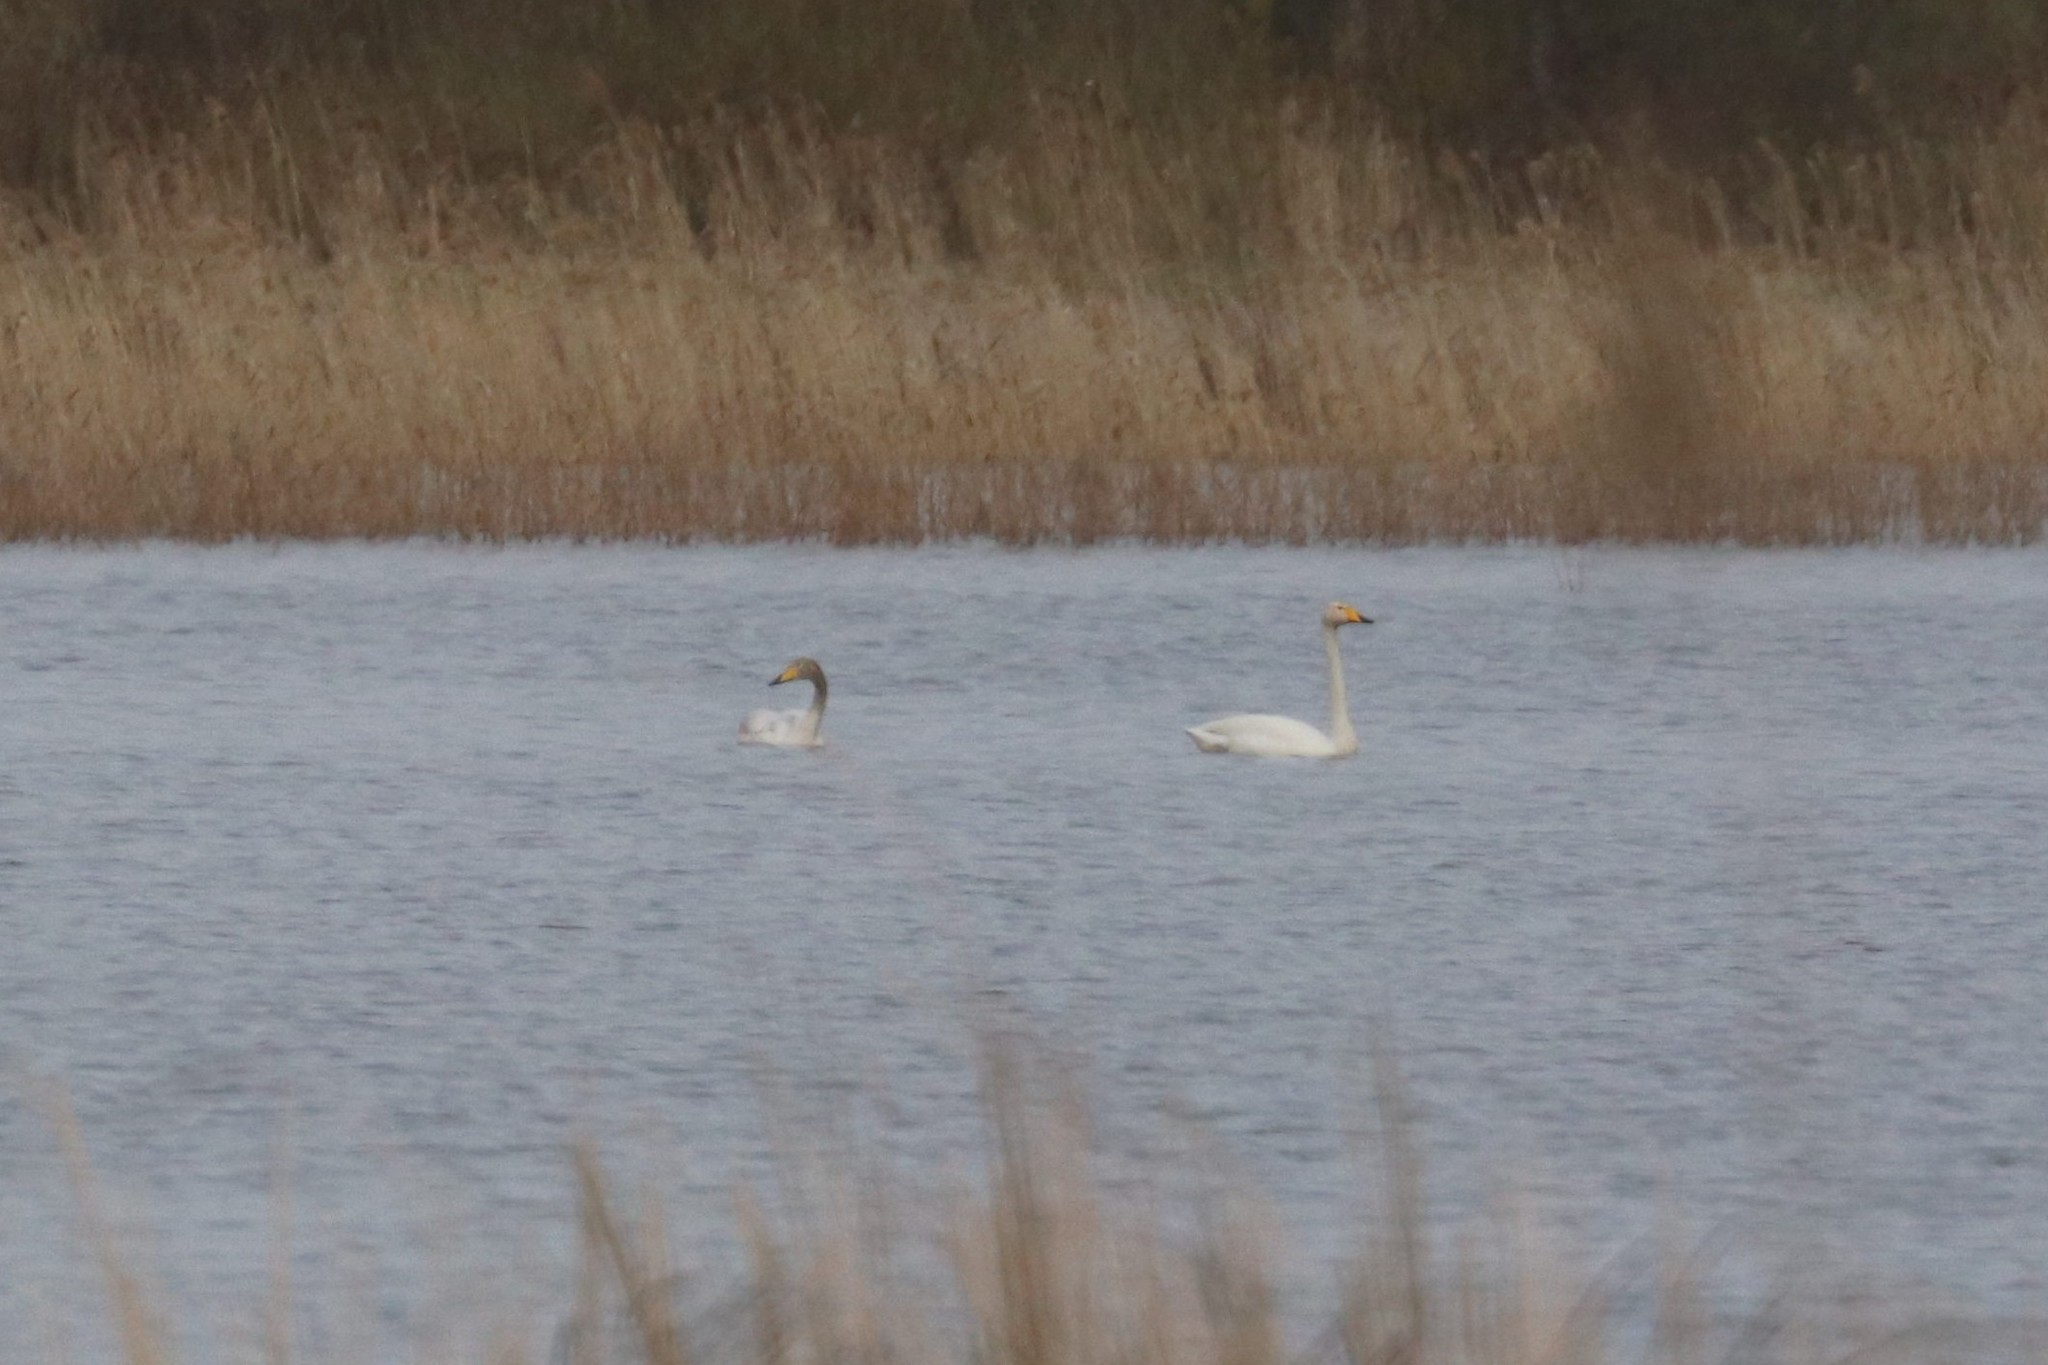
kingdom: Animalia
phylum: Chordata
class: Aves
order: Anseriformes
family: Anatidae
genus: Cygnus
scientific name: Cygnus cygnus
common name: Whooper swan
